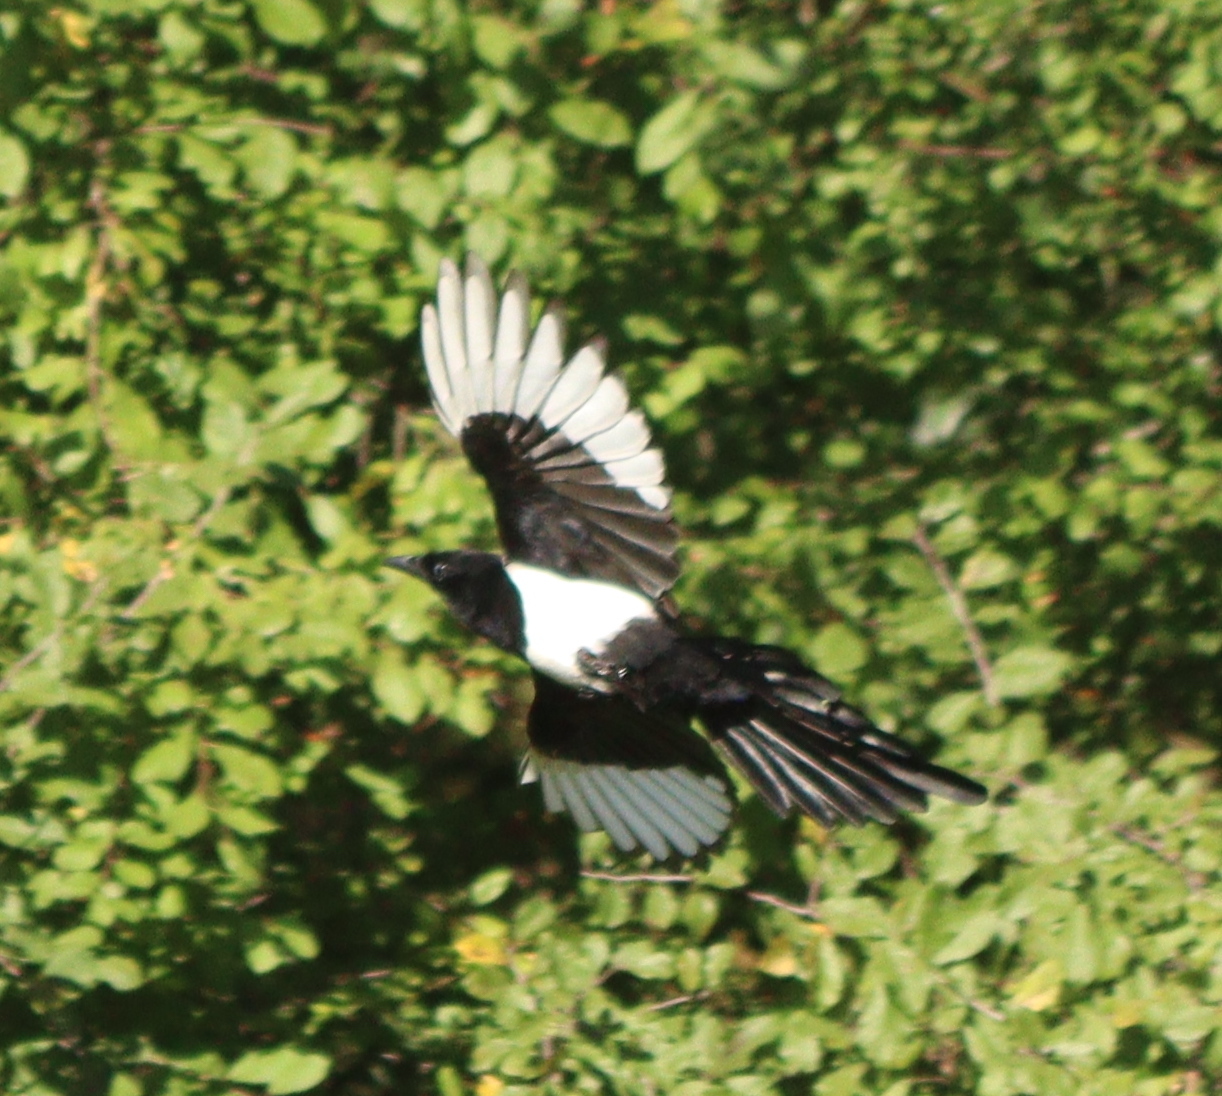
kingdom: Animalia
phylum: Chordata
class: Aves
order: Passeriformes
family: Corvidae
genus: Pica
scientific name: Pica pica
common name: Eurasian magpie
